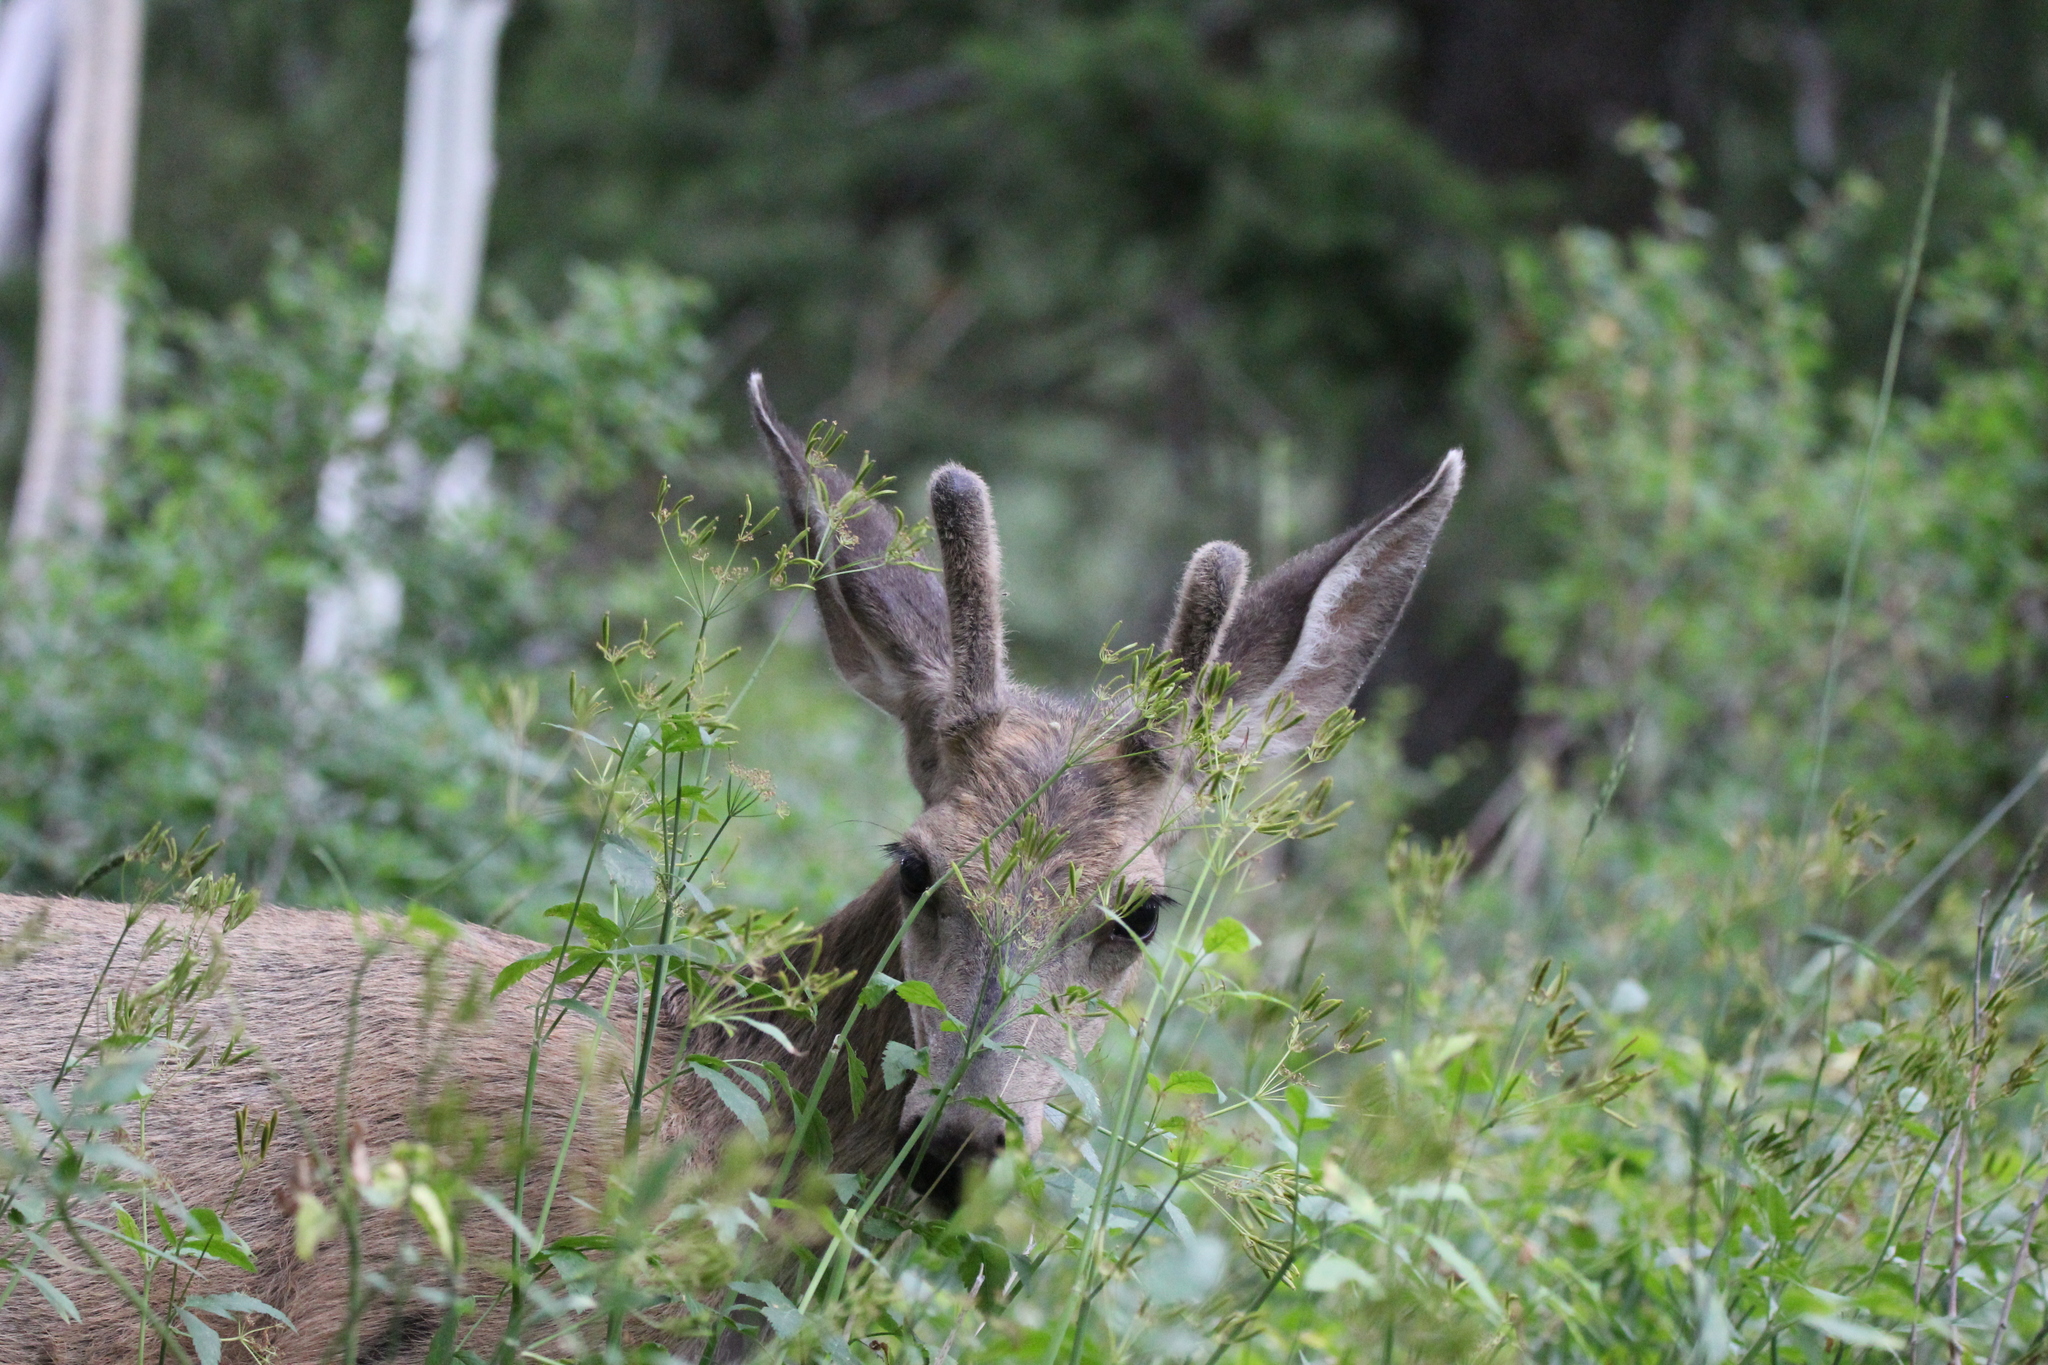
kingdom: Animalia
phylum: Chordata
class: Mammalia
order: Artiodactyla
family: Cervidae
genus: Odocoileus
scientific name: Odocoileus hemionus
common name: Mule deer
